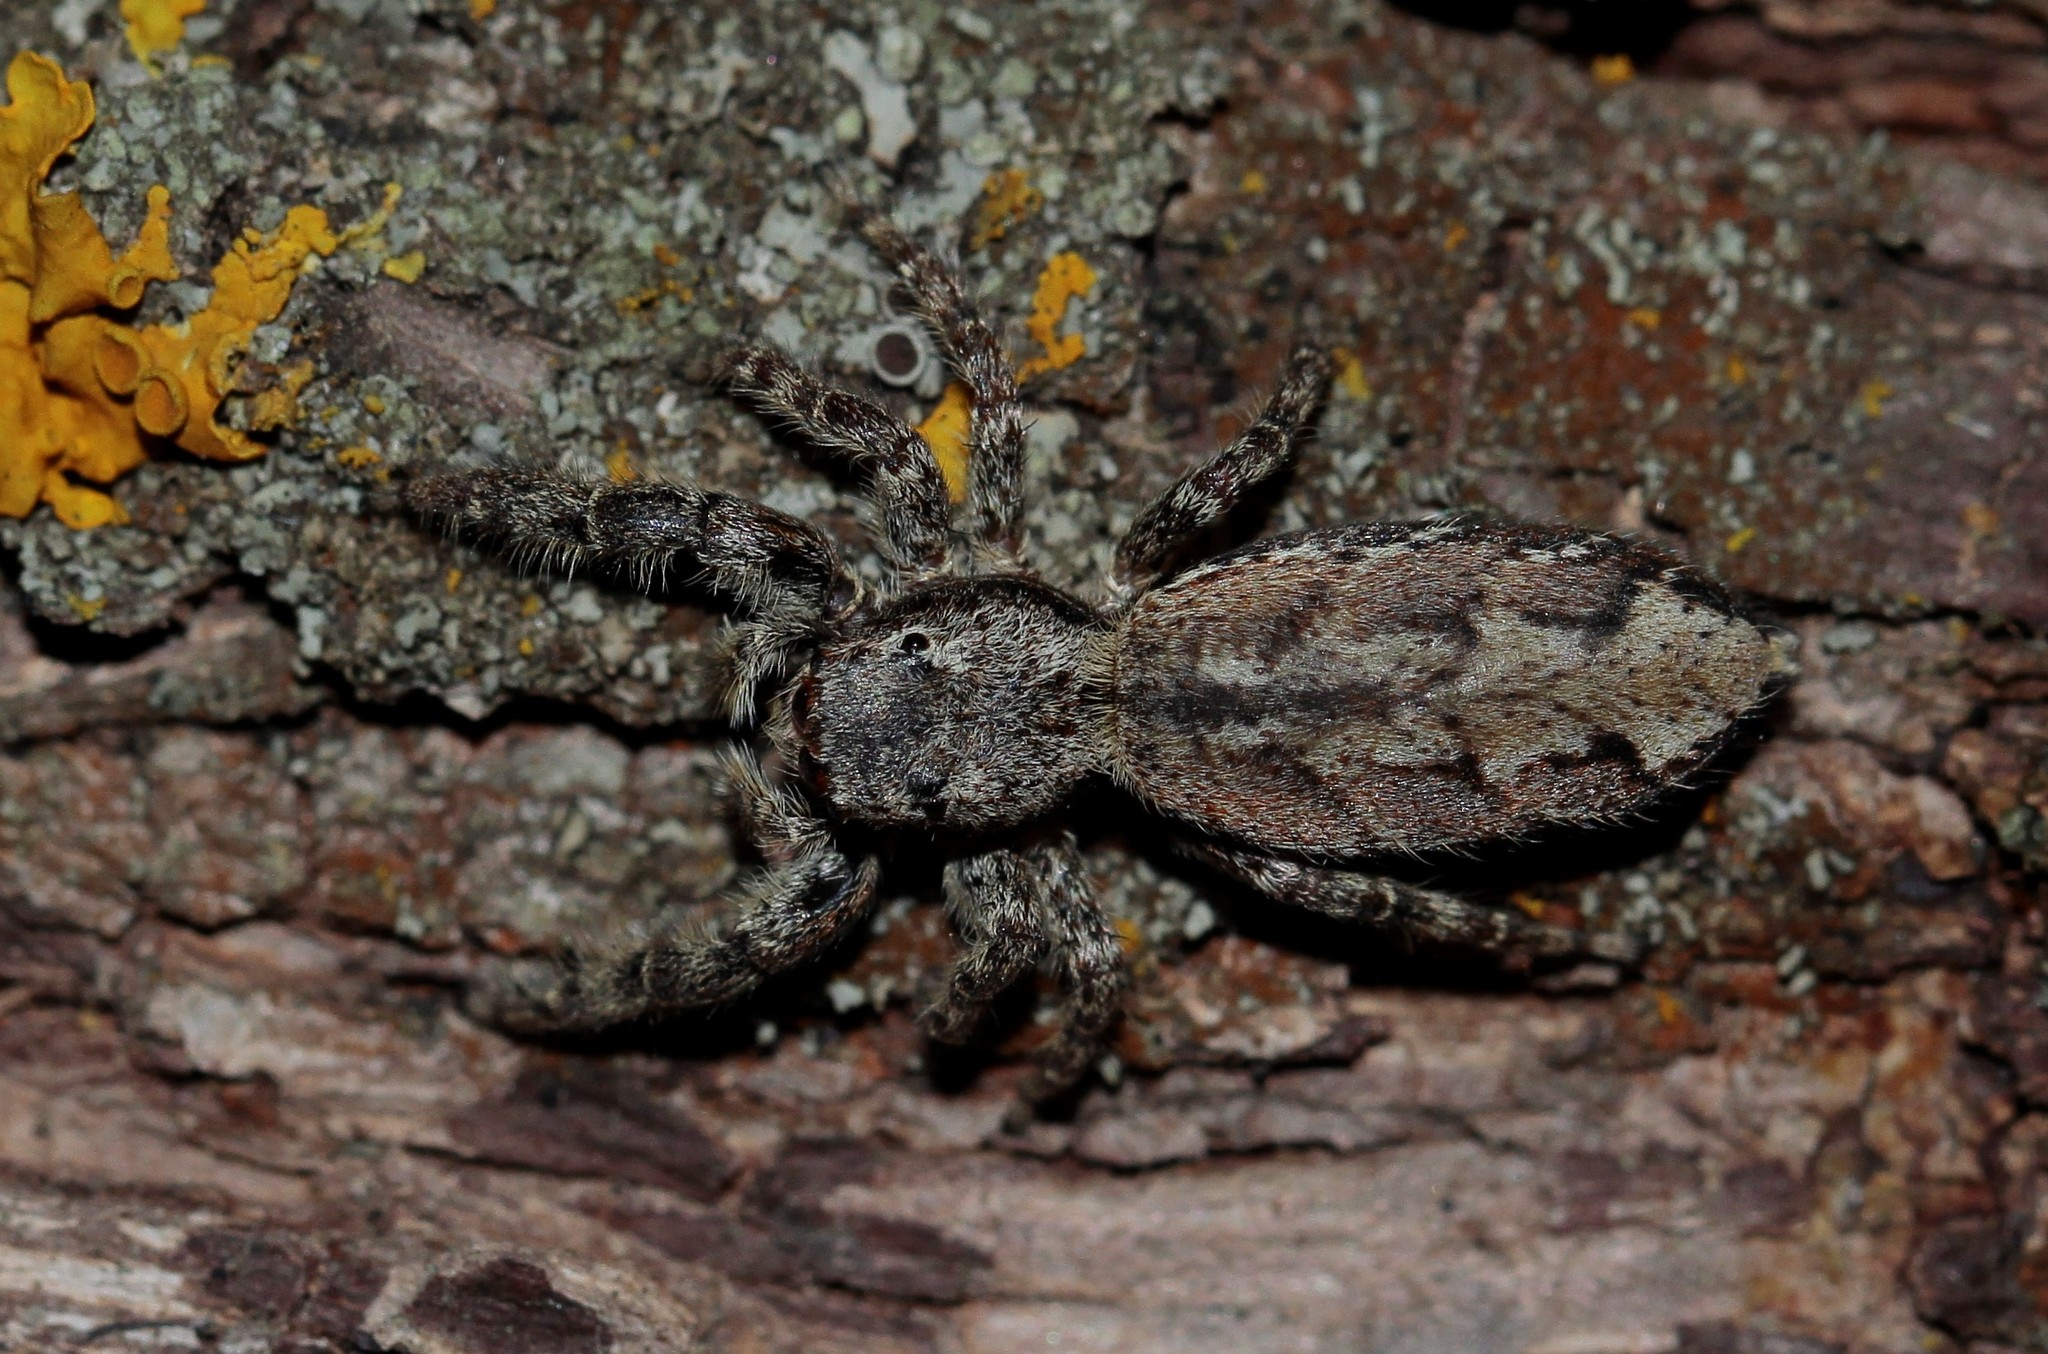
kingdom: Animalia
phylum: Arthropoda
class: Arachnida
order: Araneae
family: Salticidae
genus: Marpissa
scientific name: Marpissa muscosa
